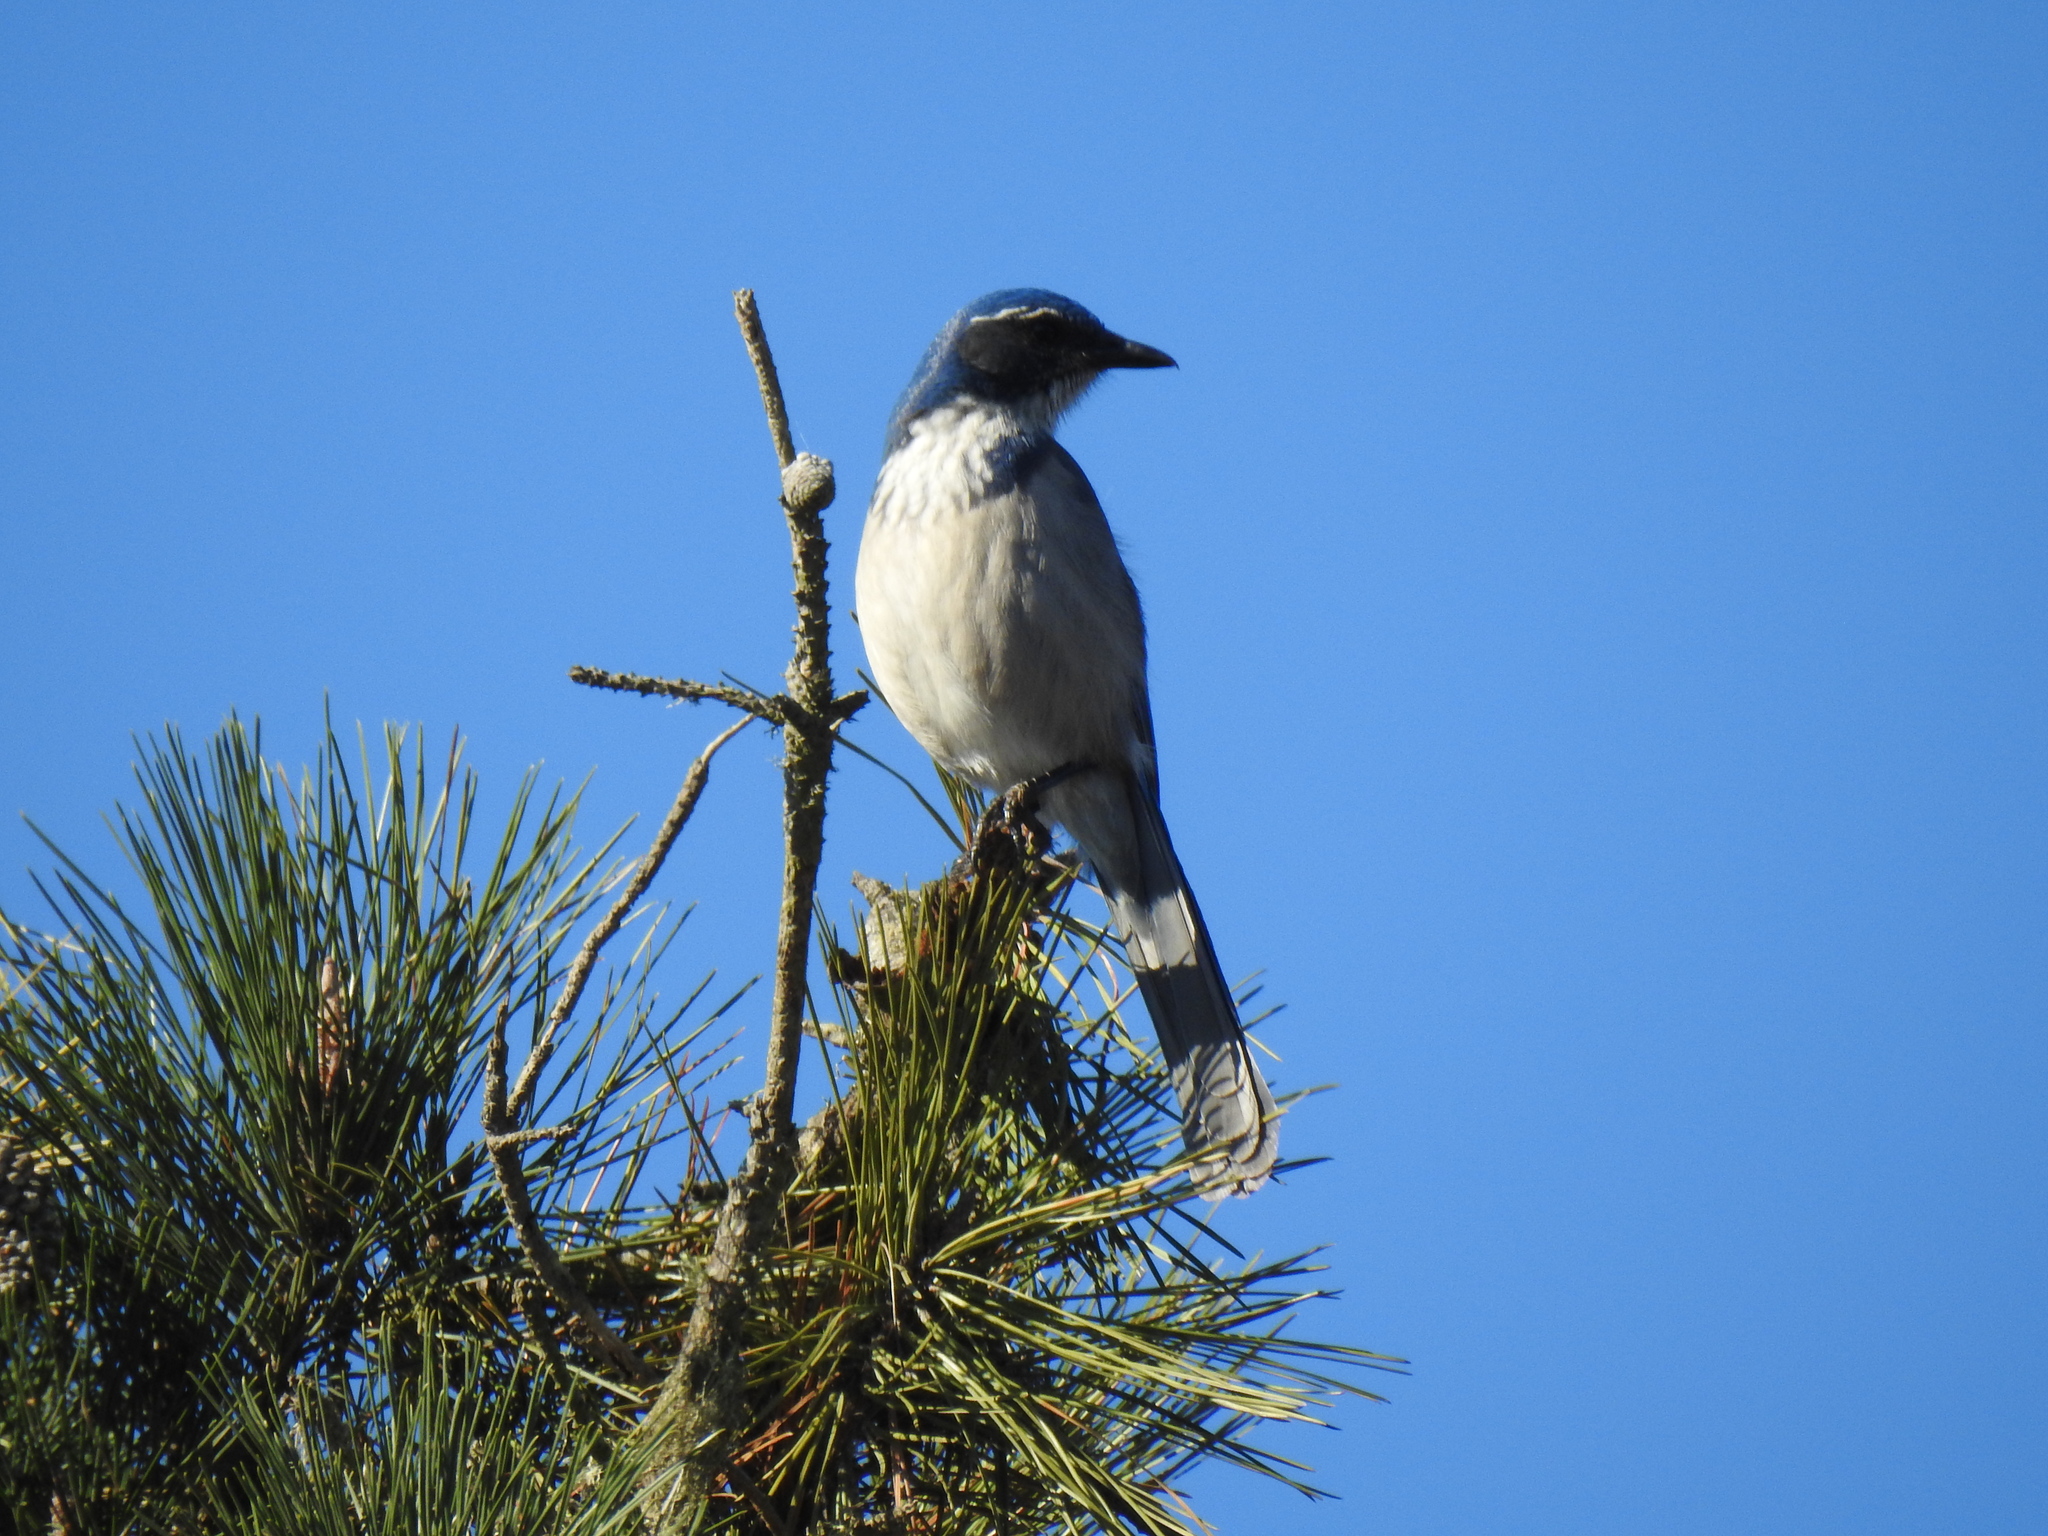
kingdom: Animalia
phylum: Chordata
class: Aves
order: Passeriformes
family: Corvidae
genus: Aphelocoma
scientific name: Aphelocoma californica
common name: California scrub-jay
